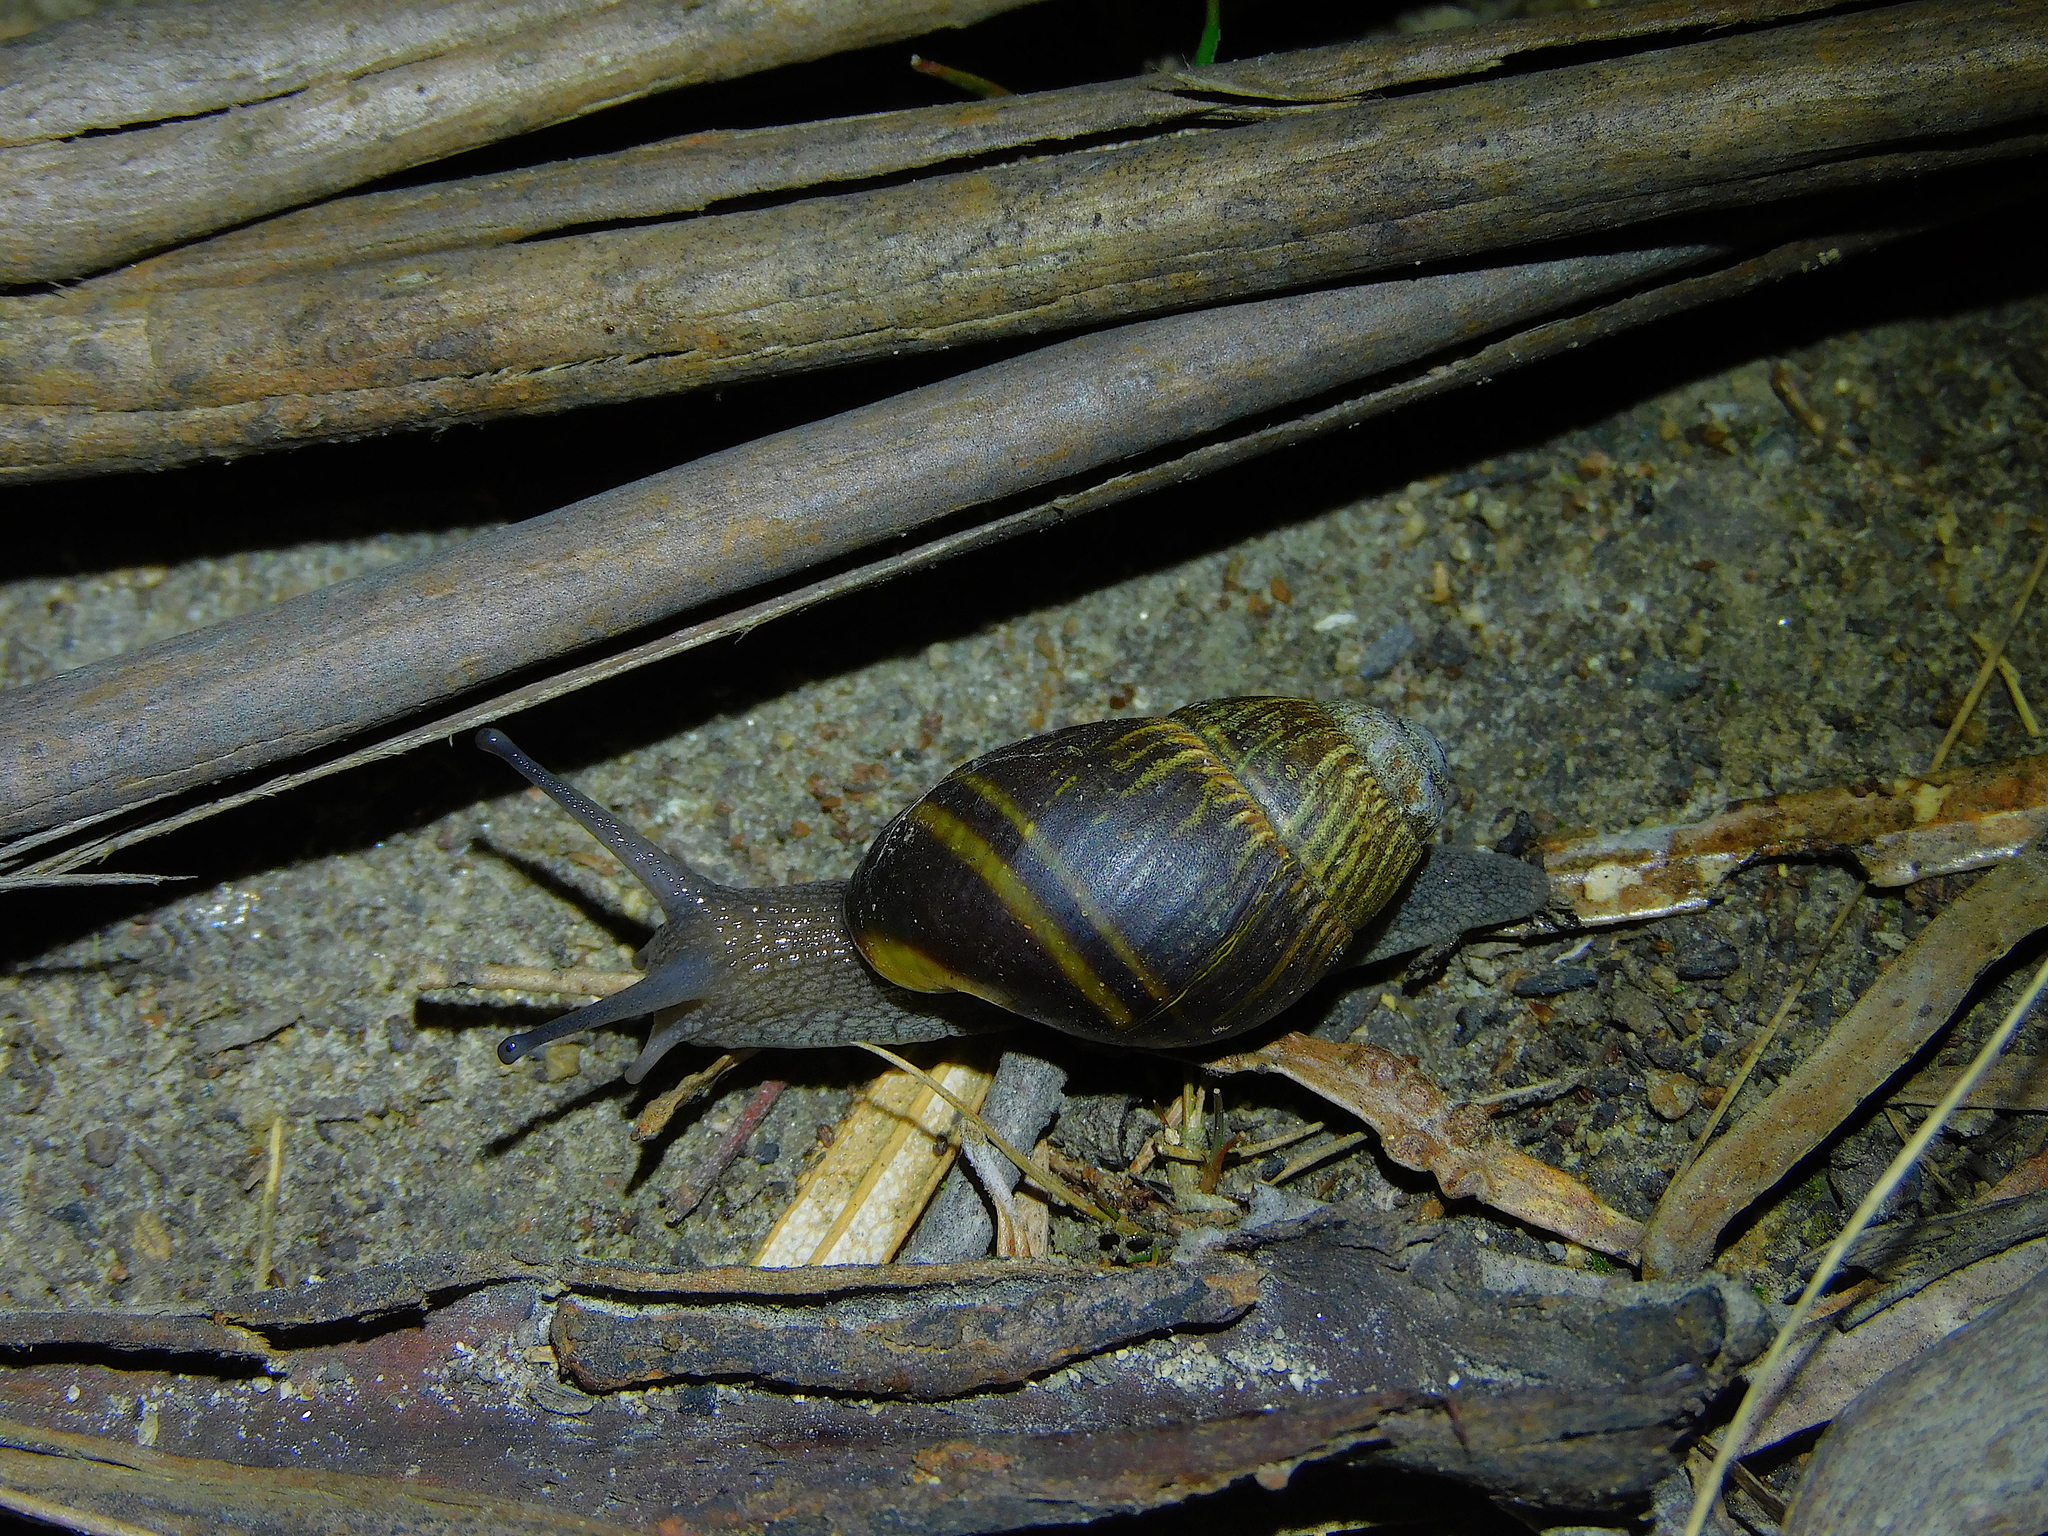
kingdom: Animalia
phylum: Mollusca
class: Gastropoda
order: Stylommatophora
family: Caryodidae
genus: Caryodes
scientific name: Caryodes dufresnii
